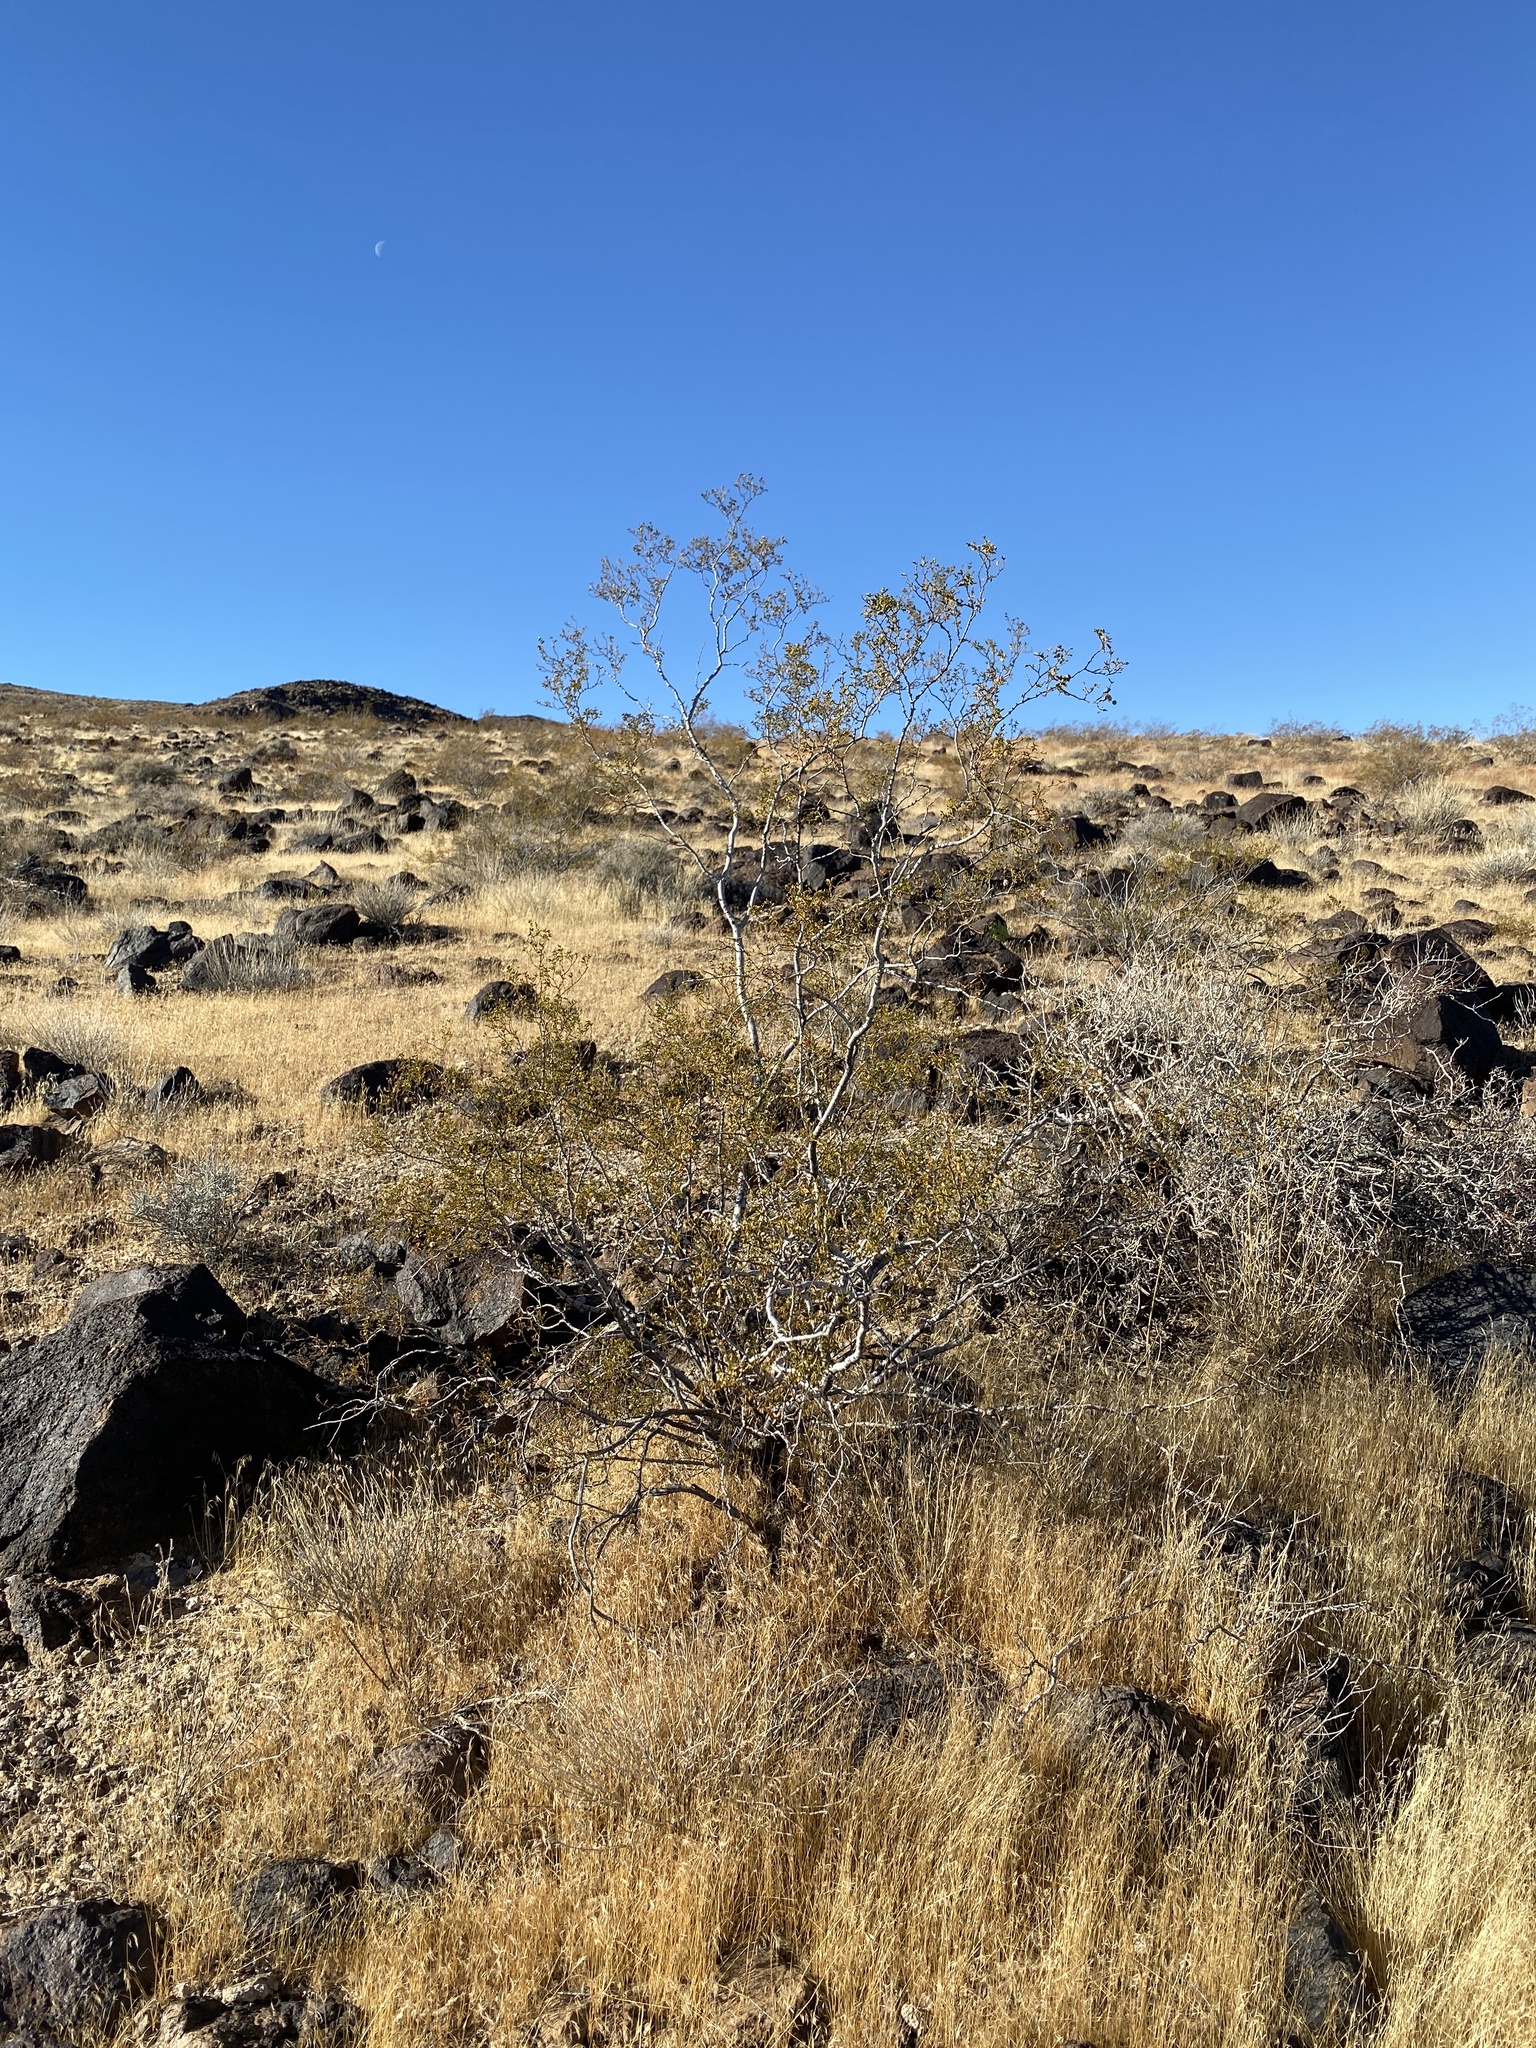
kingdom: Plantae
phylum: Tracheophyta
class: Magnoliopsida
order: Zygophyllales
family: Zygophyllaceae
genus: Larrea
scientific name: Larrea tridentata
